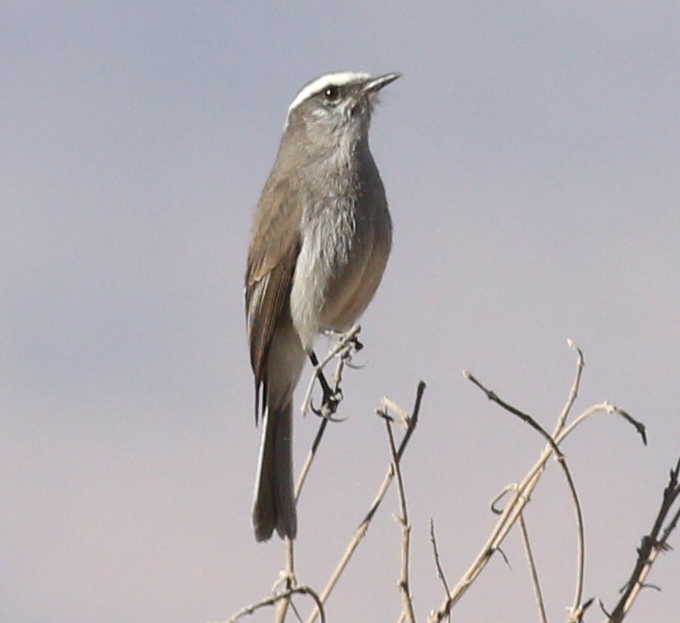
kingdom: Animalia
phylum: Chordata
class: Aves
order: Passeriformes
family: Tyrannidae
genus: Ochthoeca
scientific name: Ochthoeca leucophrys
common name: White-browed chat-tyrant
